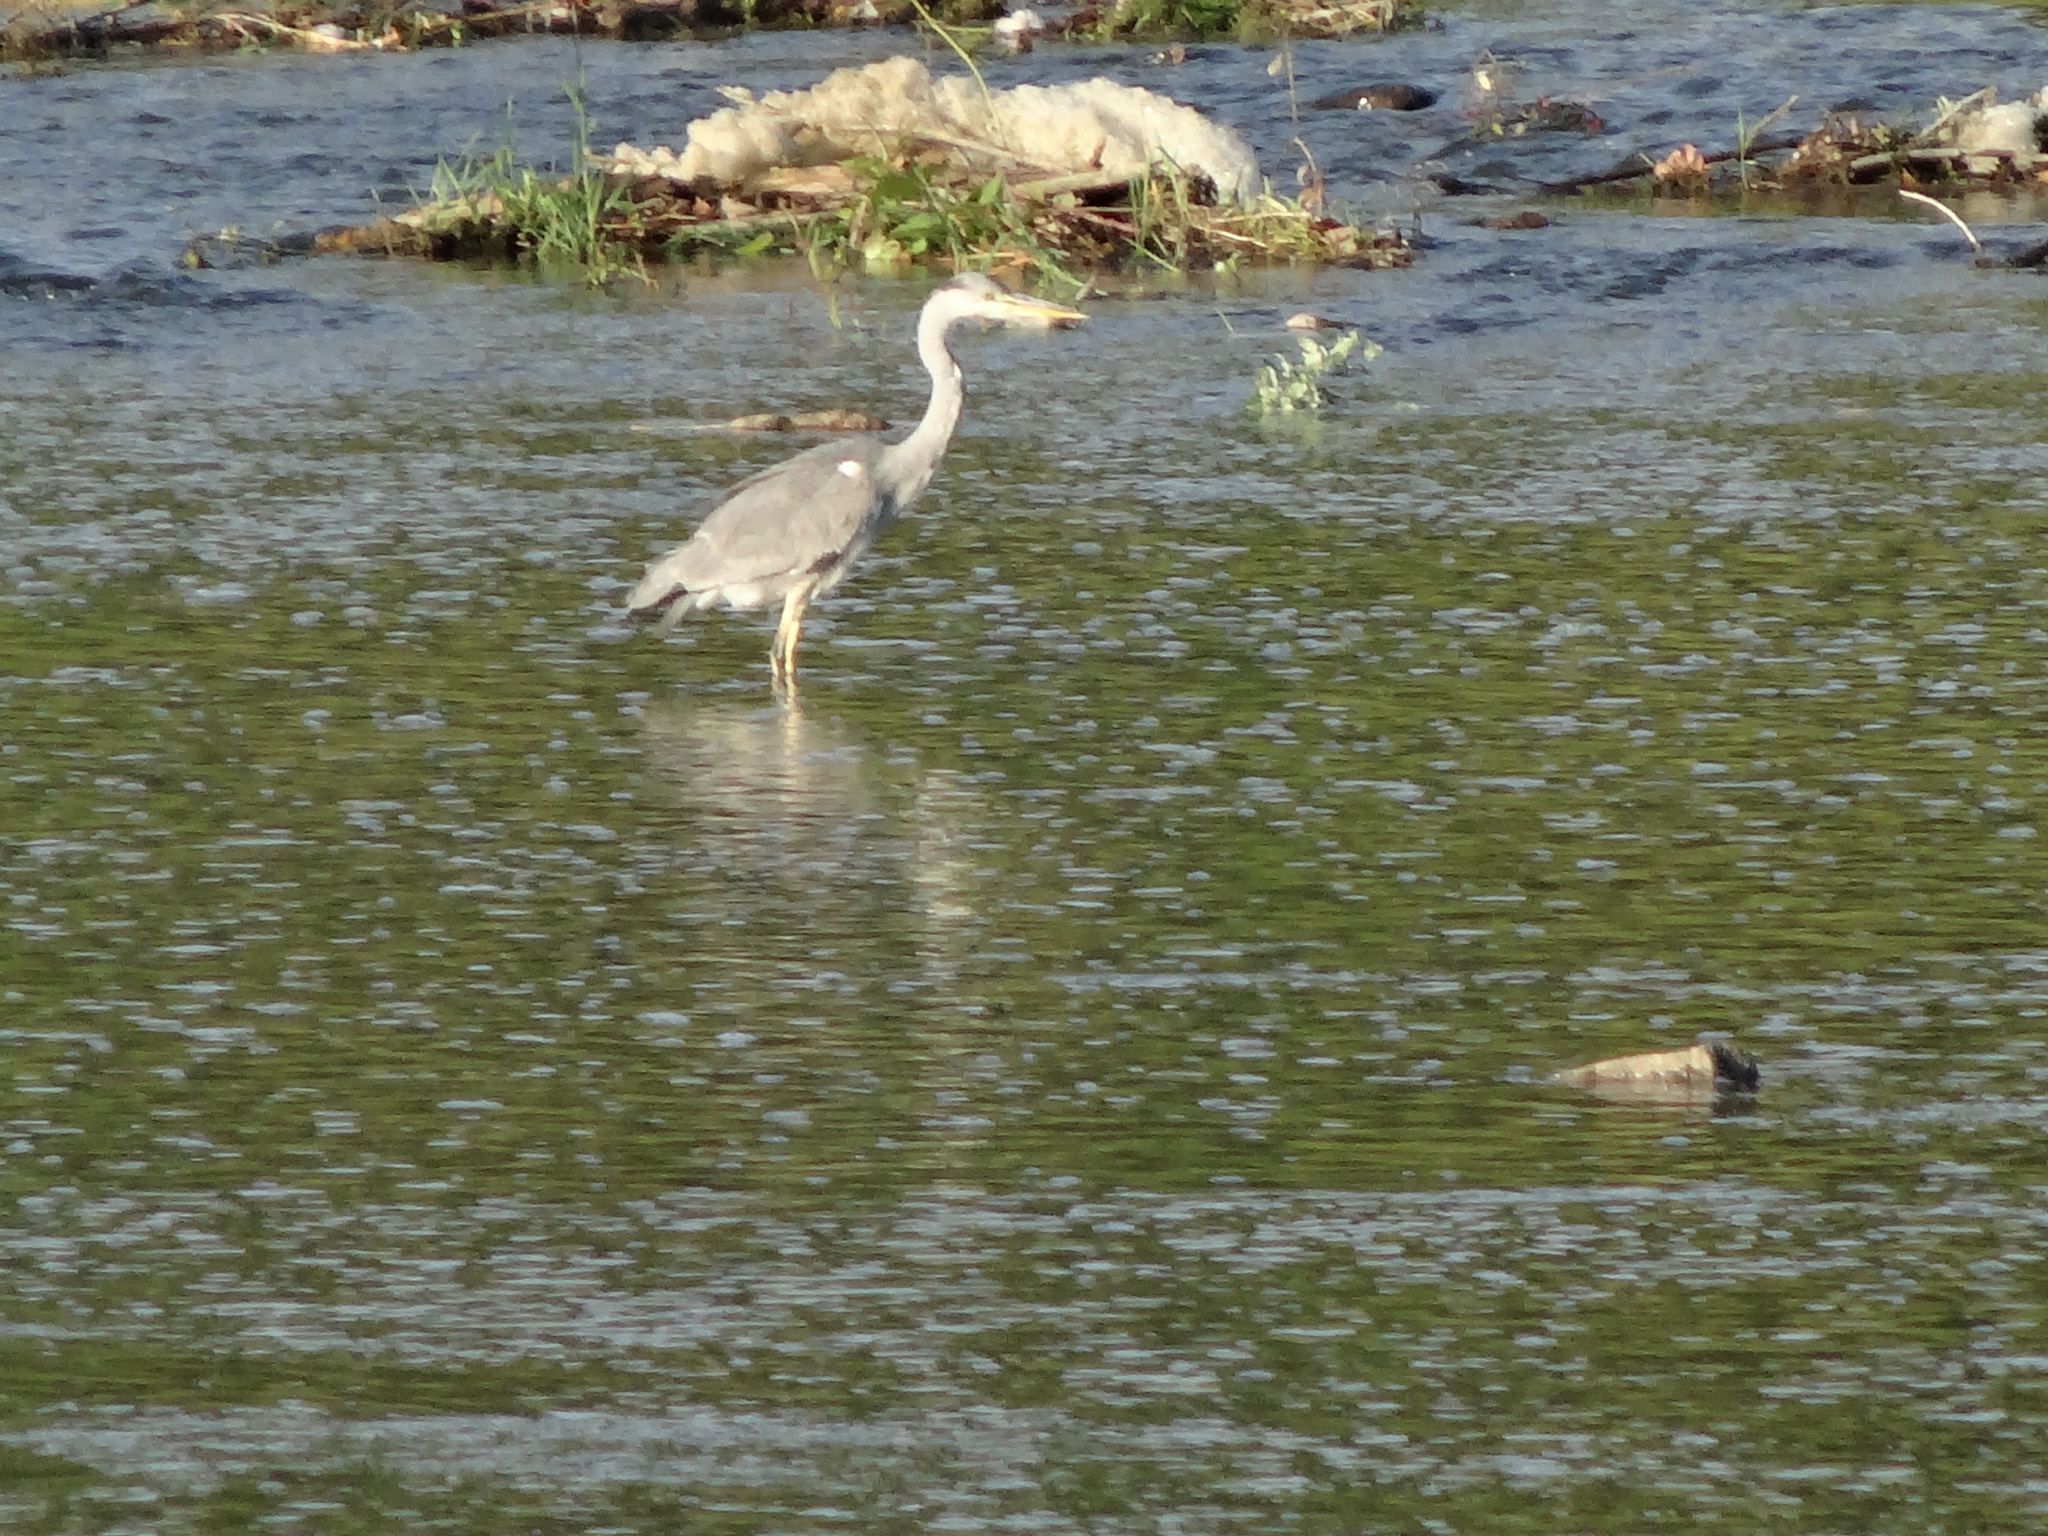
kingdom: Animalia
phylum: Chordata
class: Aves
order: Pelecaniformes
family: Ardeidae
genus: Ardea
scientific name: Ardea cinerea
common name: Grey heron
